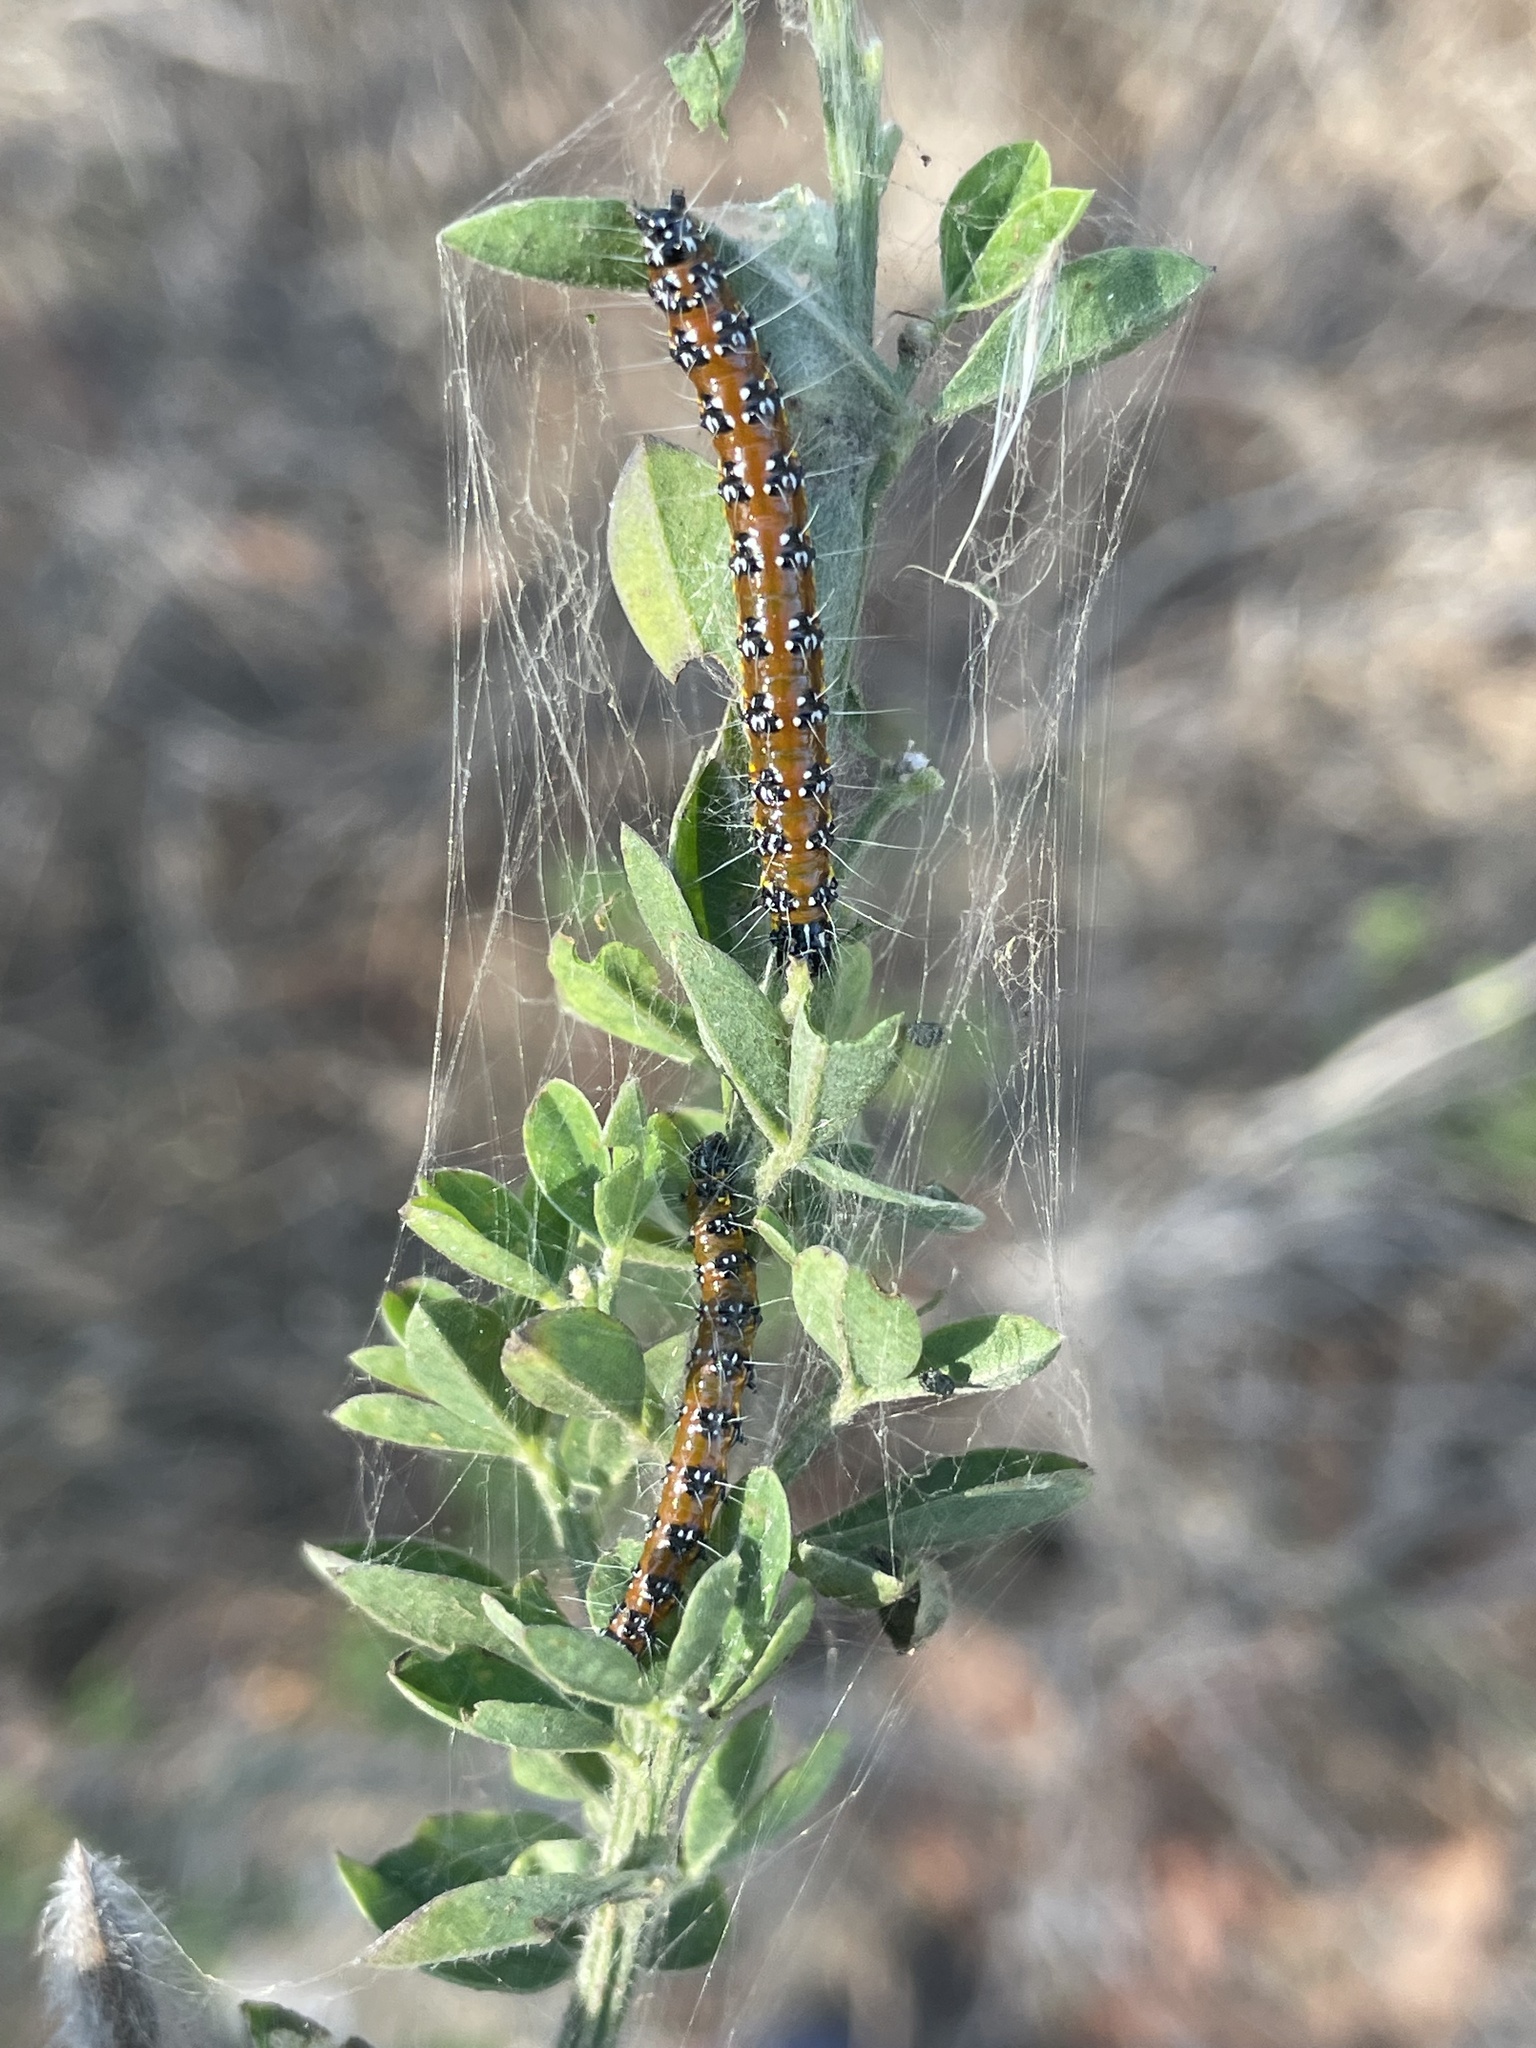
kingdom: Animalia
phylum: Arthropoda
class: Insecta
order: Lepidoptera
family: Crambidae
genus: Uresiphita
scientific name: Uresiphita reversalis
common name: Genista broom moth
